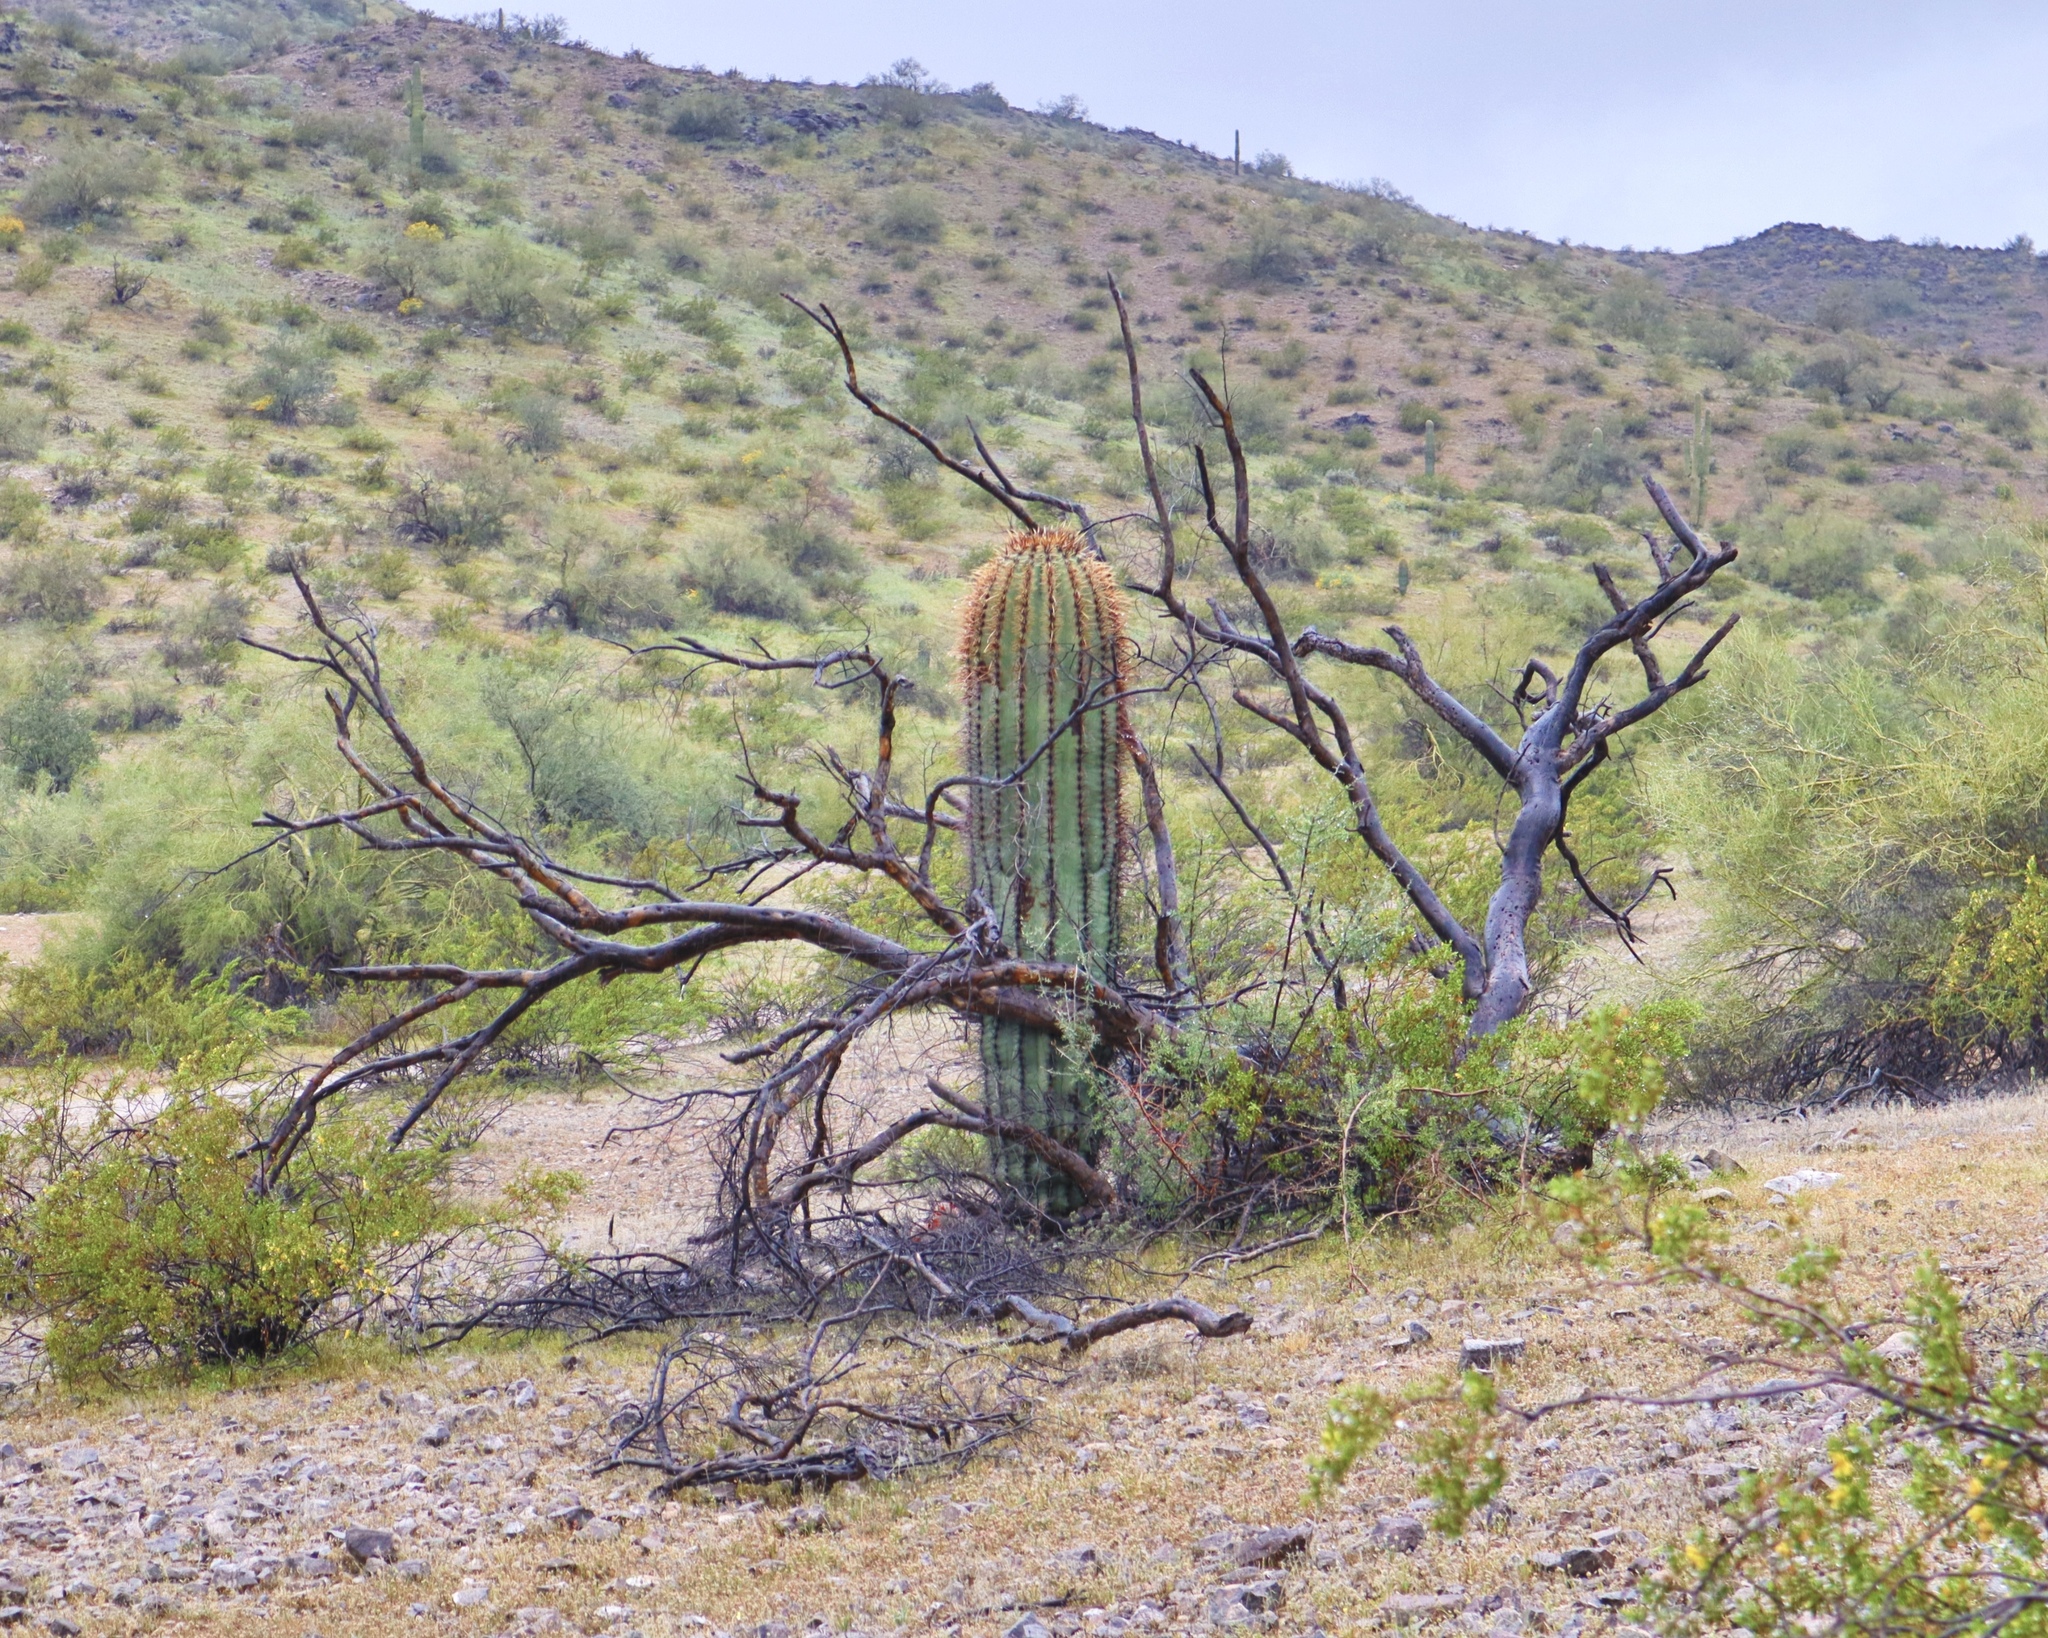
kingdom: Plantae
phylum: Tracheophyta
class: Magnoliopsida
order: Caryophyllales
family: Cactaceae
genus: Carnegiea
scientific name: Carnegiea gigantea
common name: Saguaro
